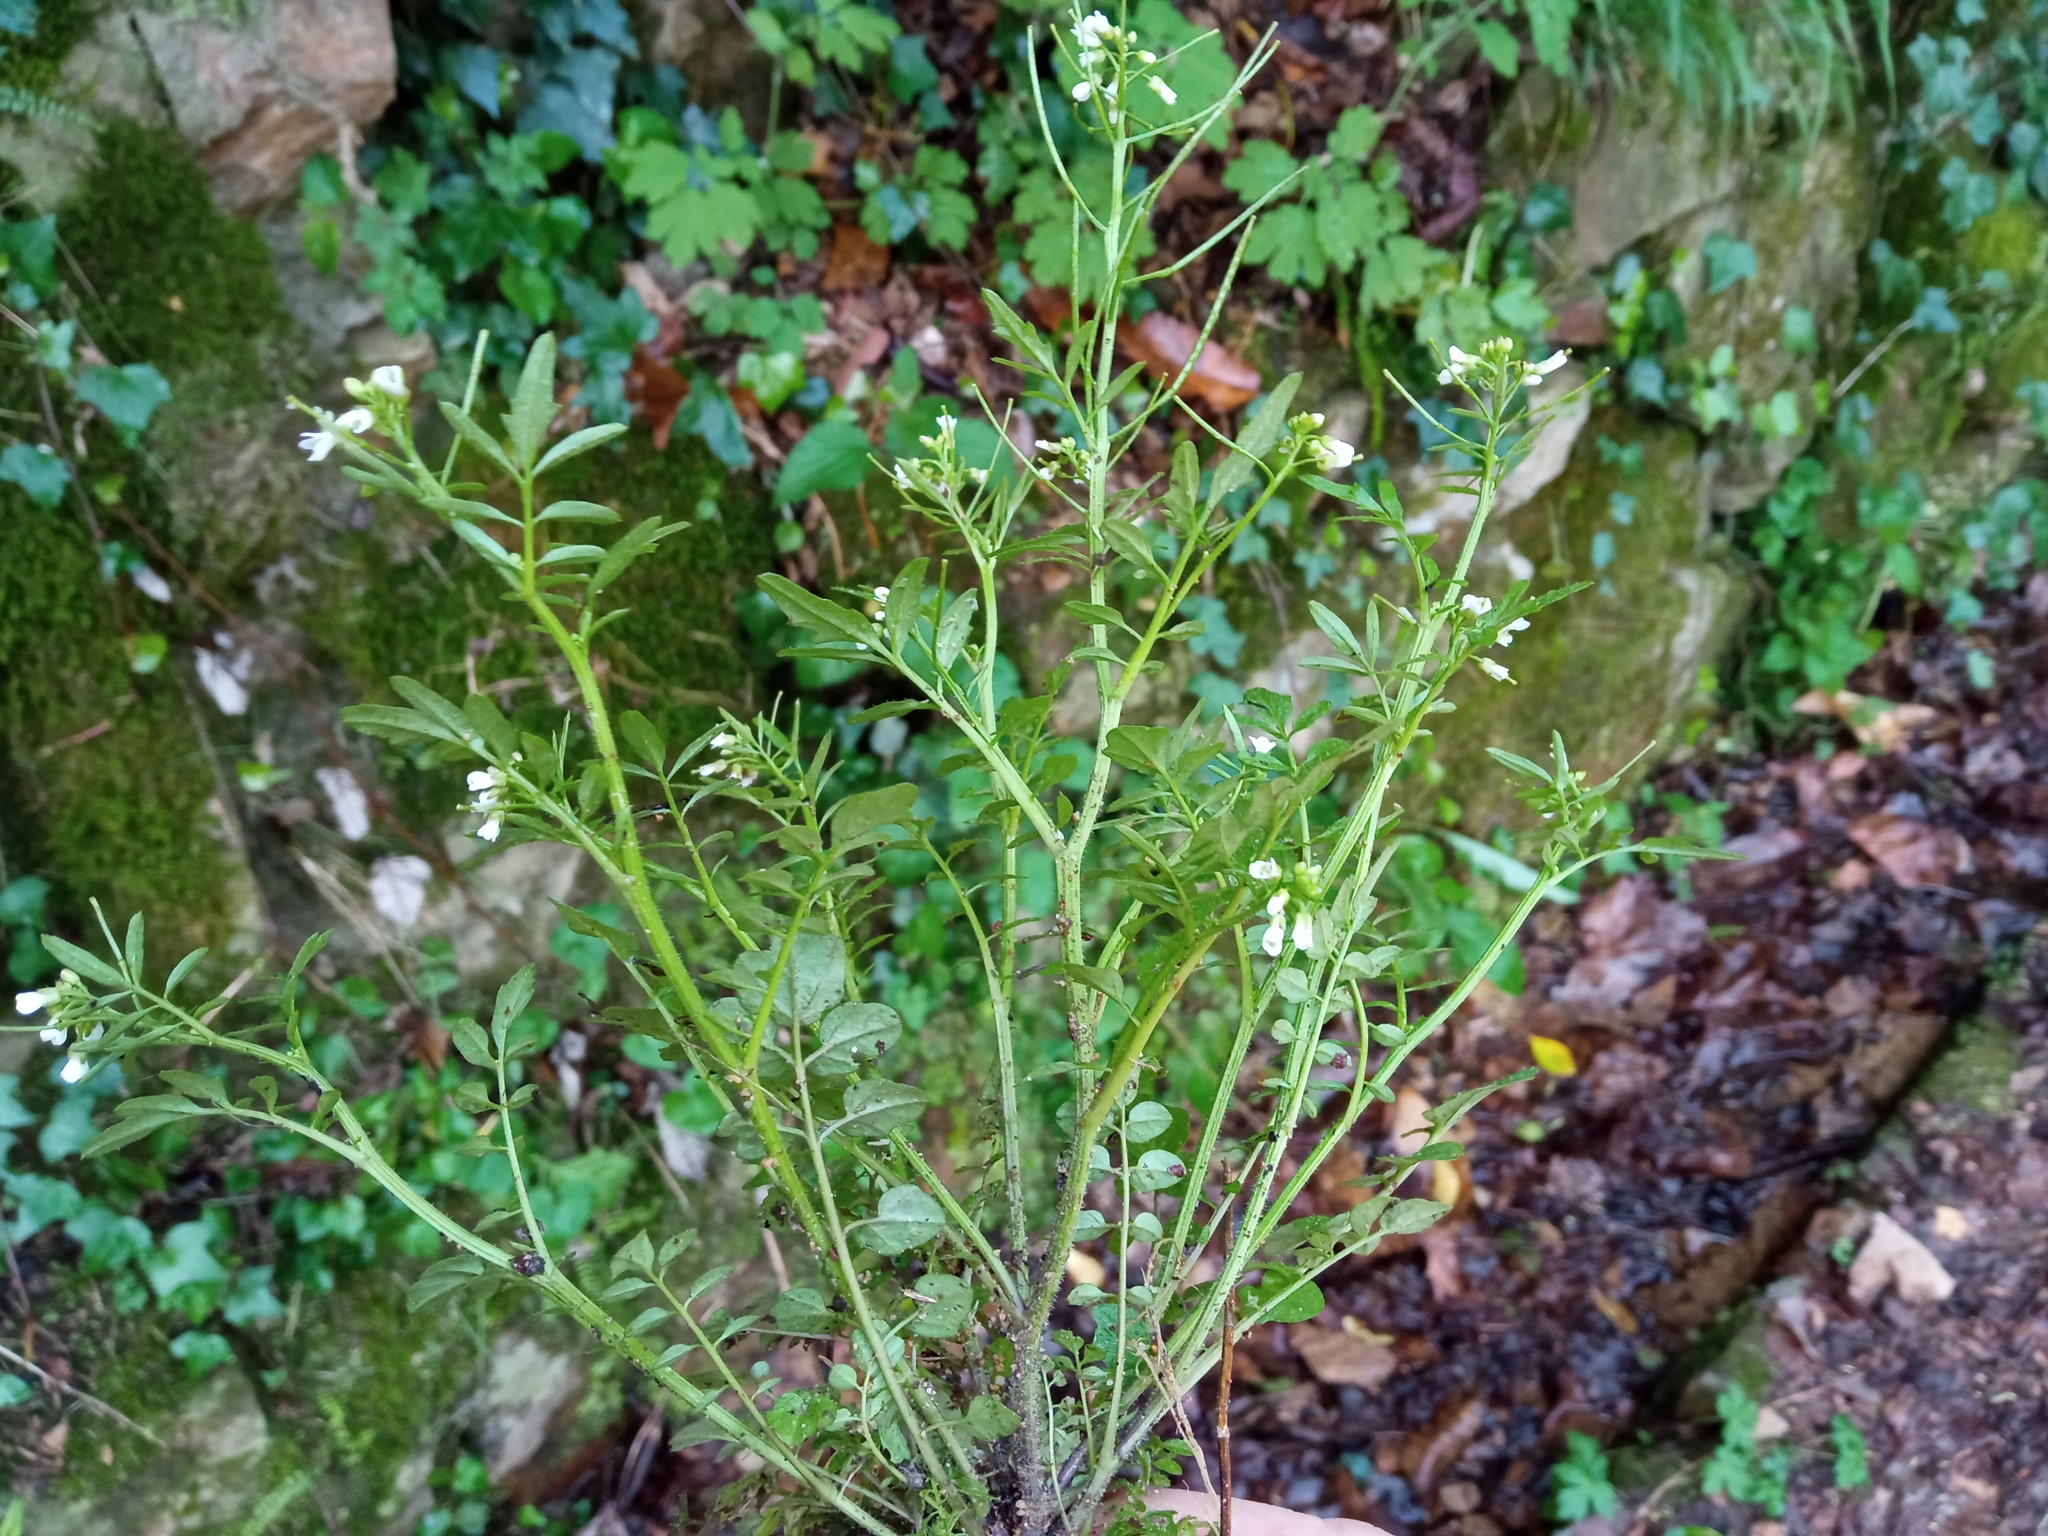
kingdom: Plantae
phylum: Tracheophyta
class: Magnoliopsida
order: Brassicales
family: Brassicaceae
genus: Cardamine
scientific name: Cardamine flexuosa
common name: Woodland bittercress
